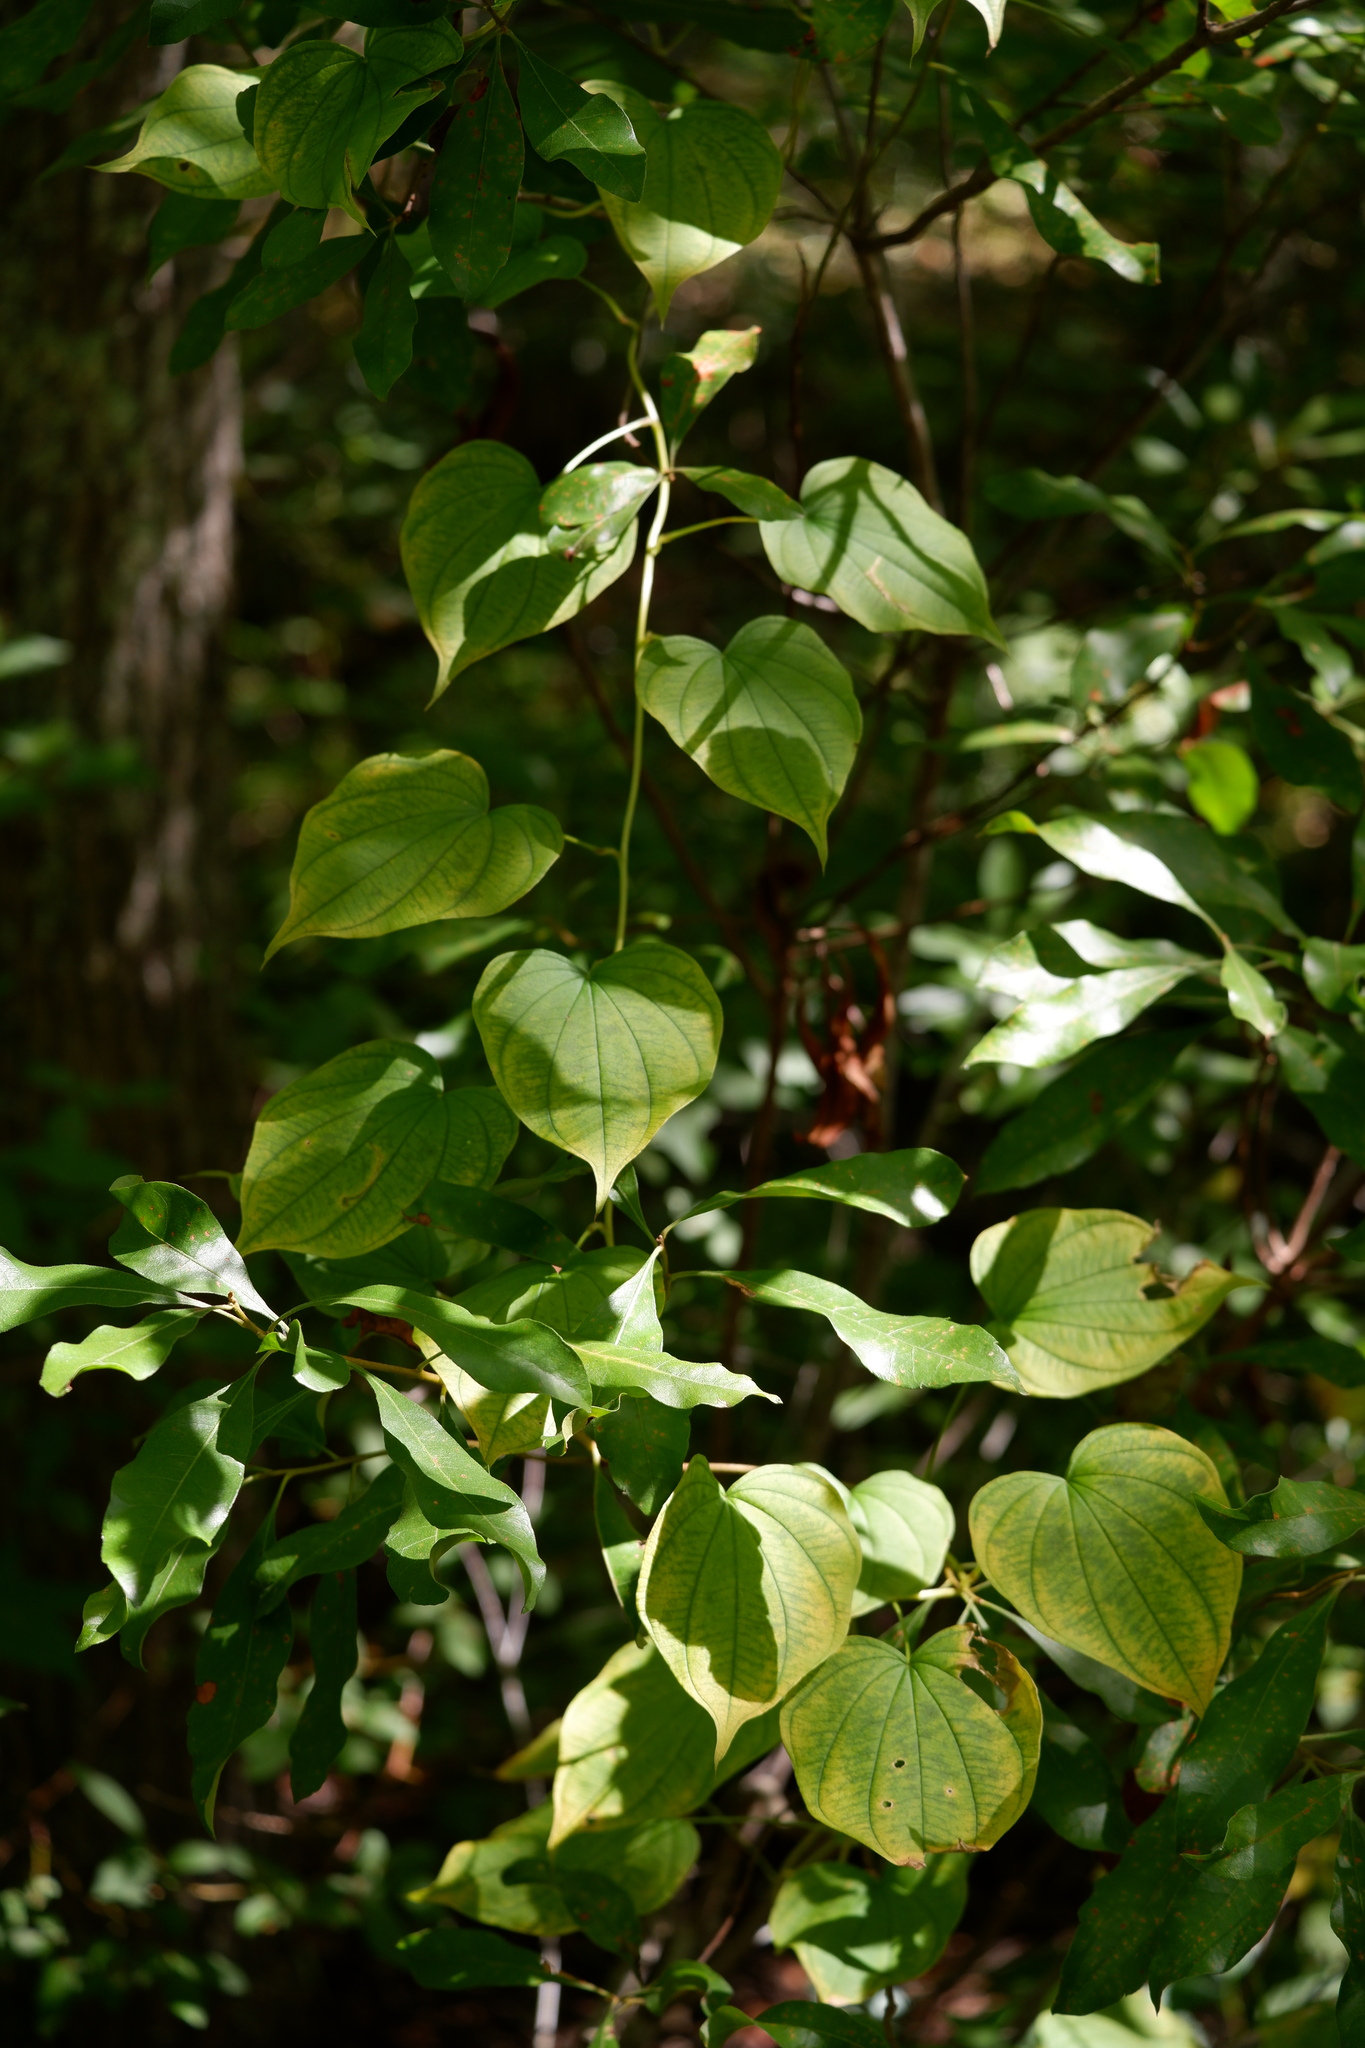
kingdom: Plantae
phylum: Tracheophyta
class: Liliopsida
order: Dioscoreales
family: Dioscoreaceae
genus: Dioscorea
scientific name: Dioscorea villosa
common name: Wild yam
